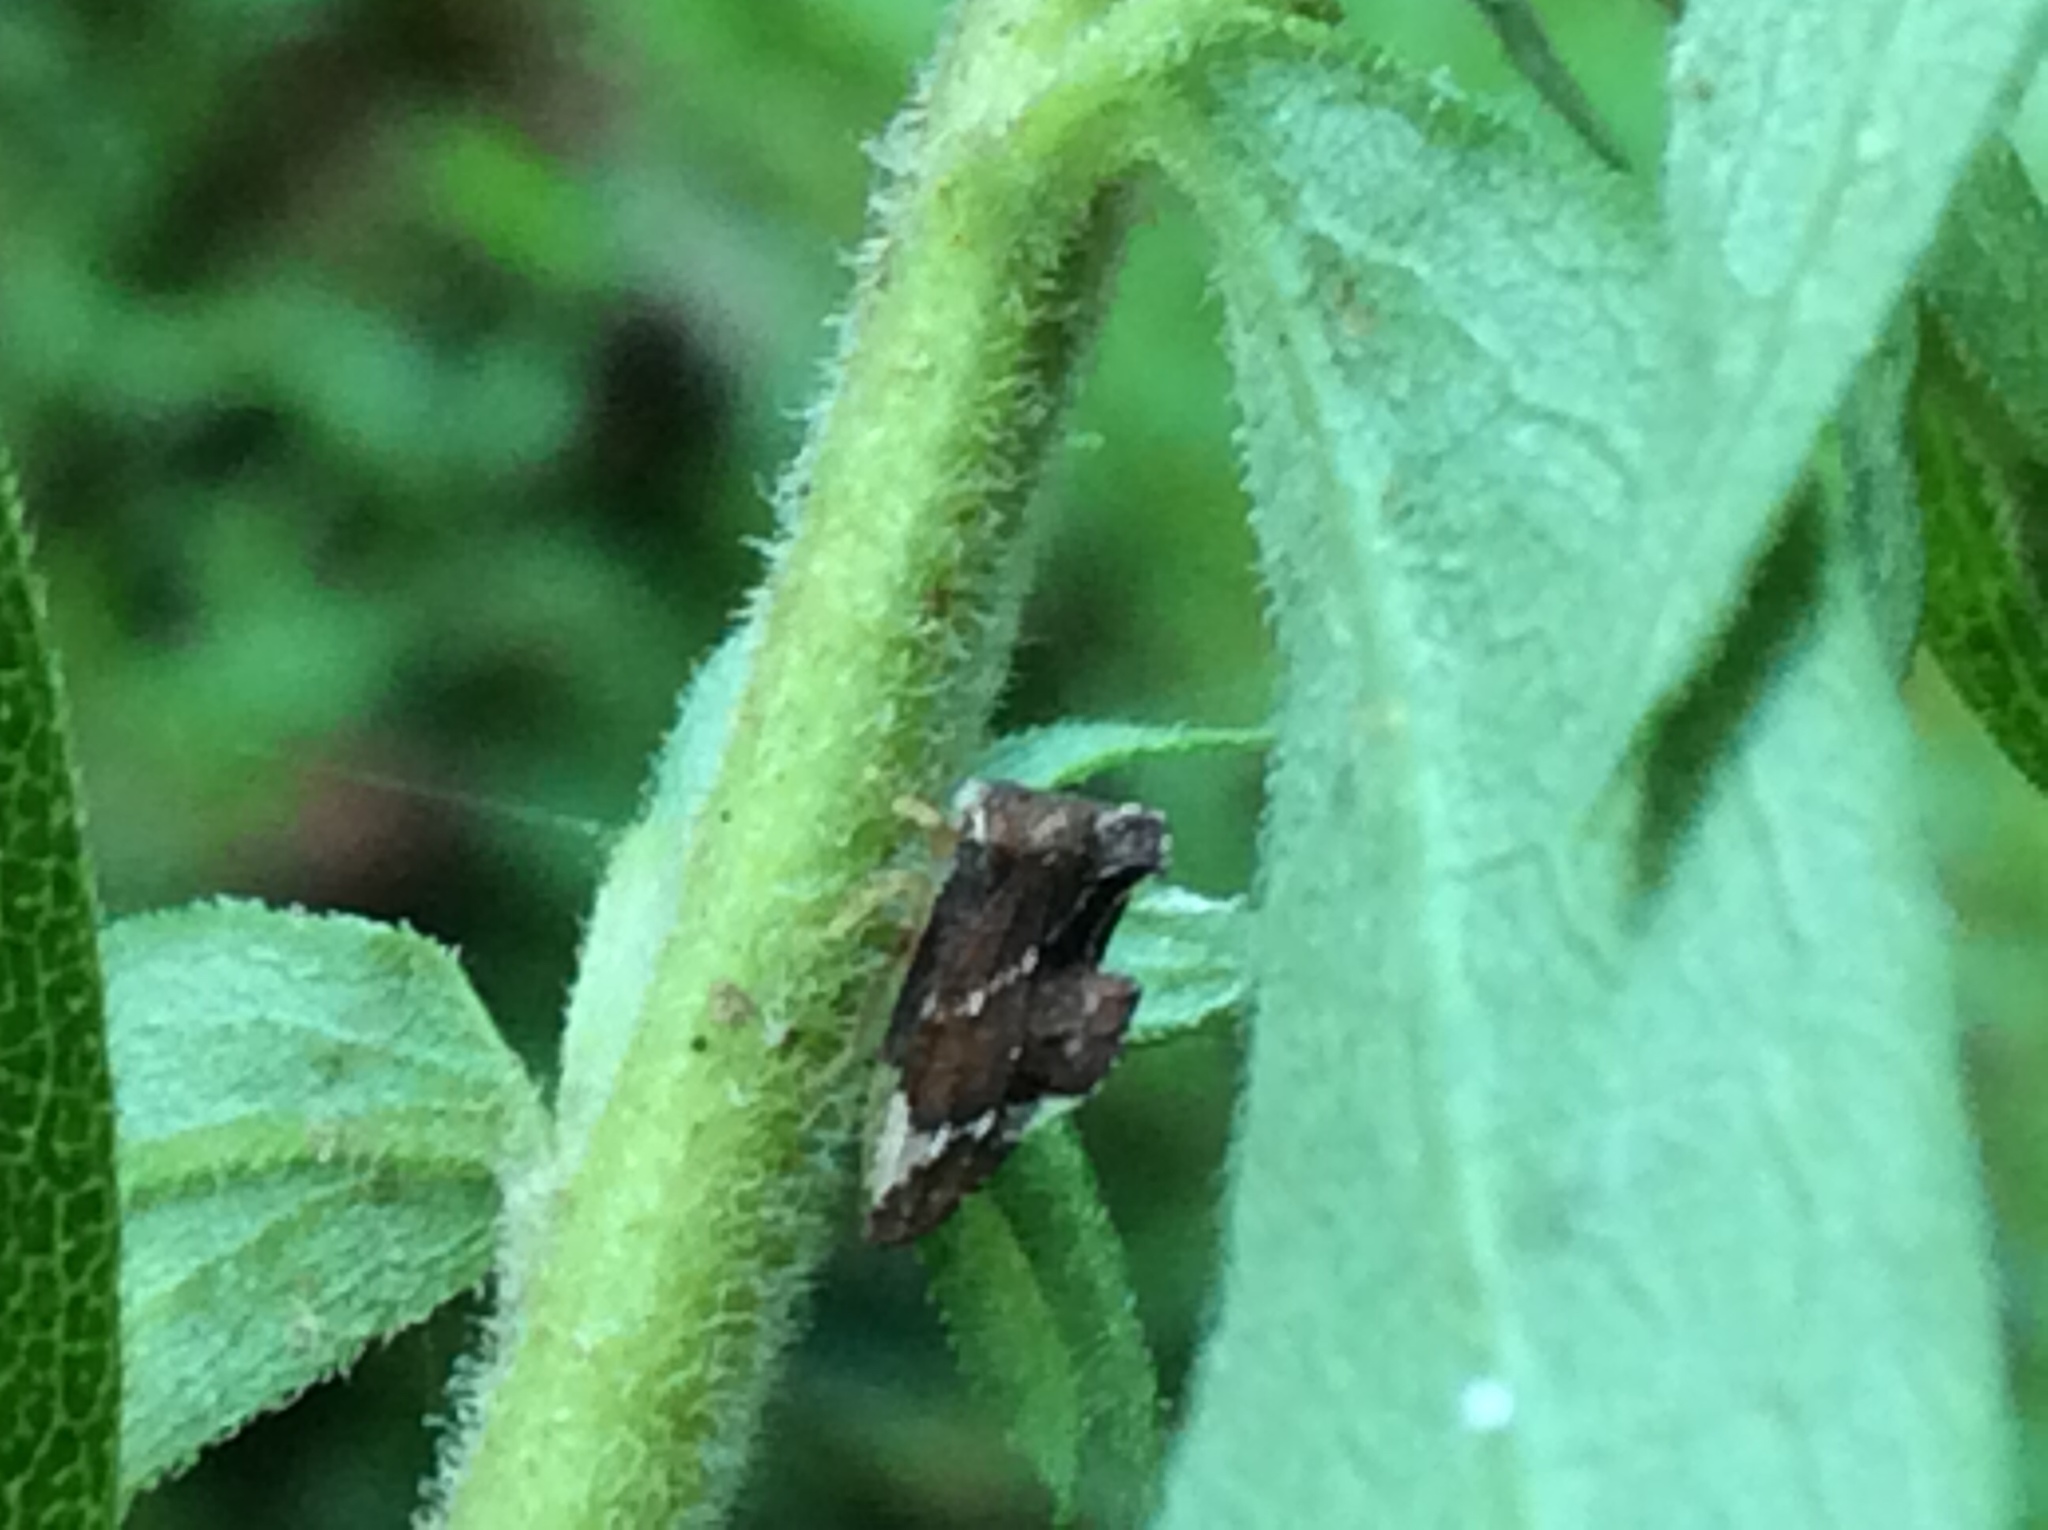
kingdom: Animalia
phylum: Arthropoda
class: Insecta
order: Hemiptera
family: Membracidae
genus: Entylia
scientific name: Entylia carinata
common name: Keeled treehopper
